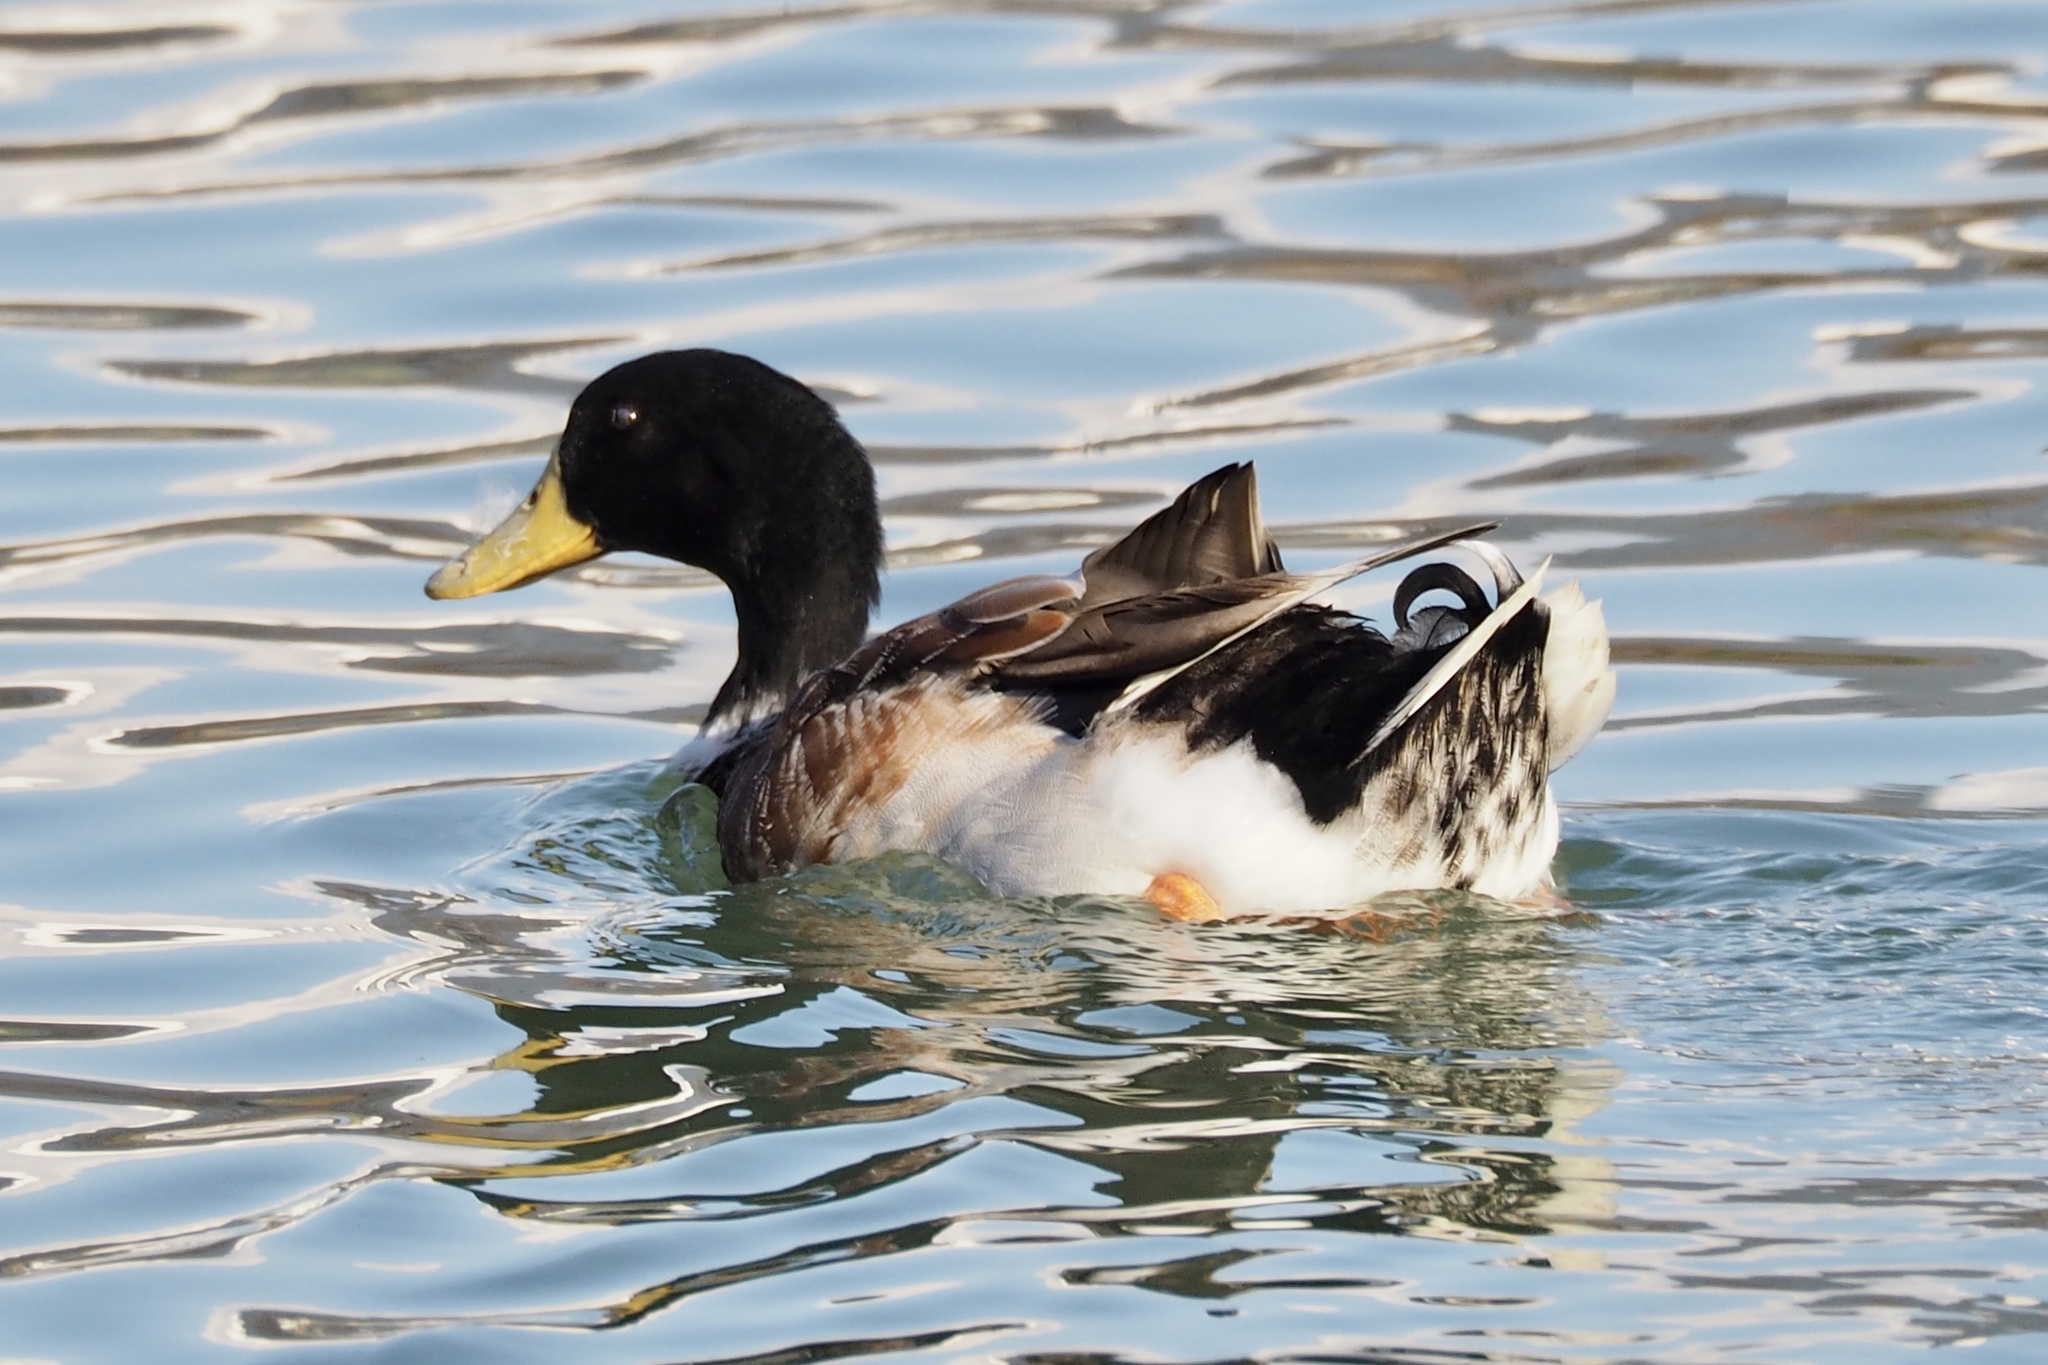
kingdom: Animalia
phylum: Chordata
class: Aves
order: Anseriformes
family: Anatidae
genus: Anas
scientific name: Anas platyrhynchos
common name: Mallard
